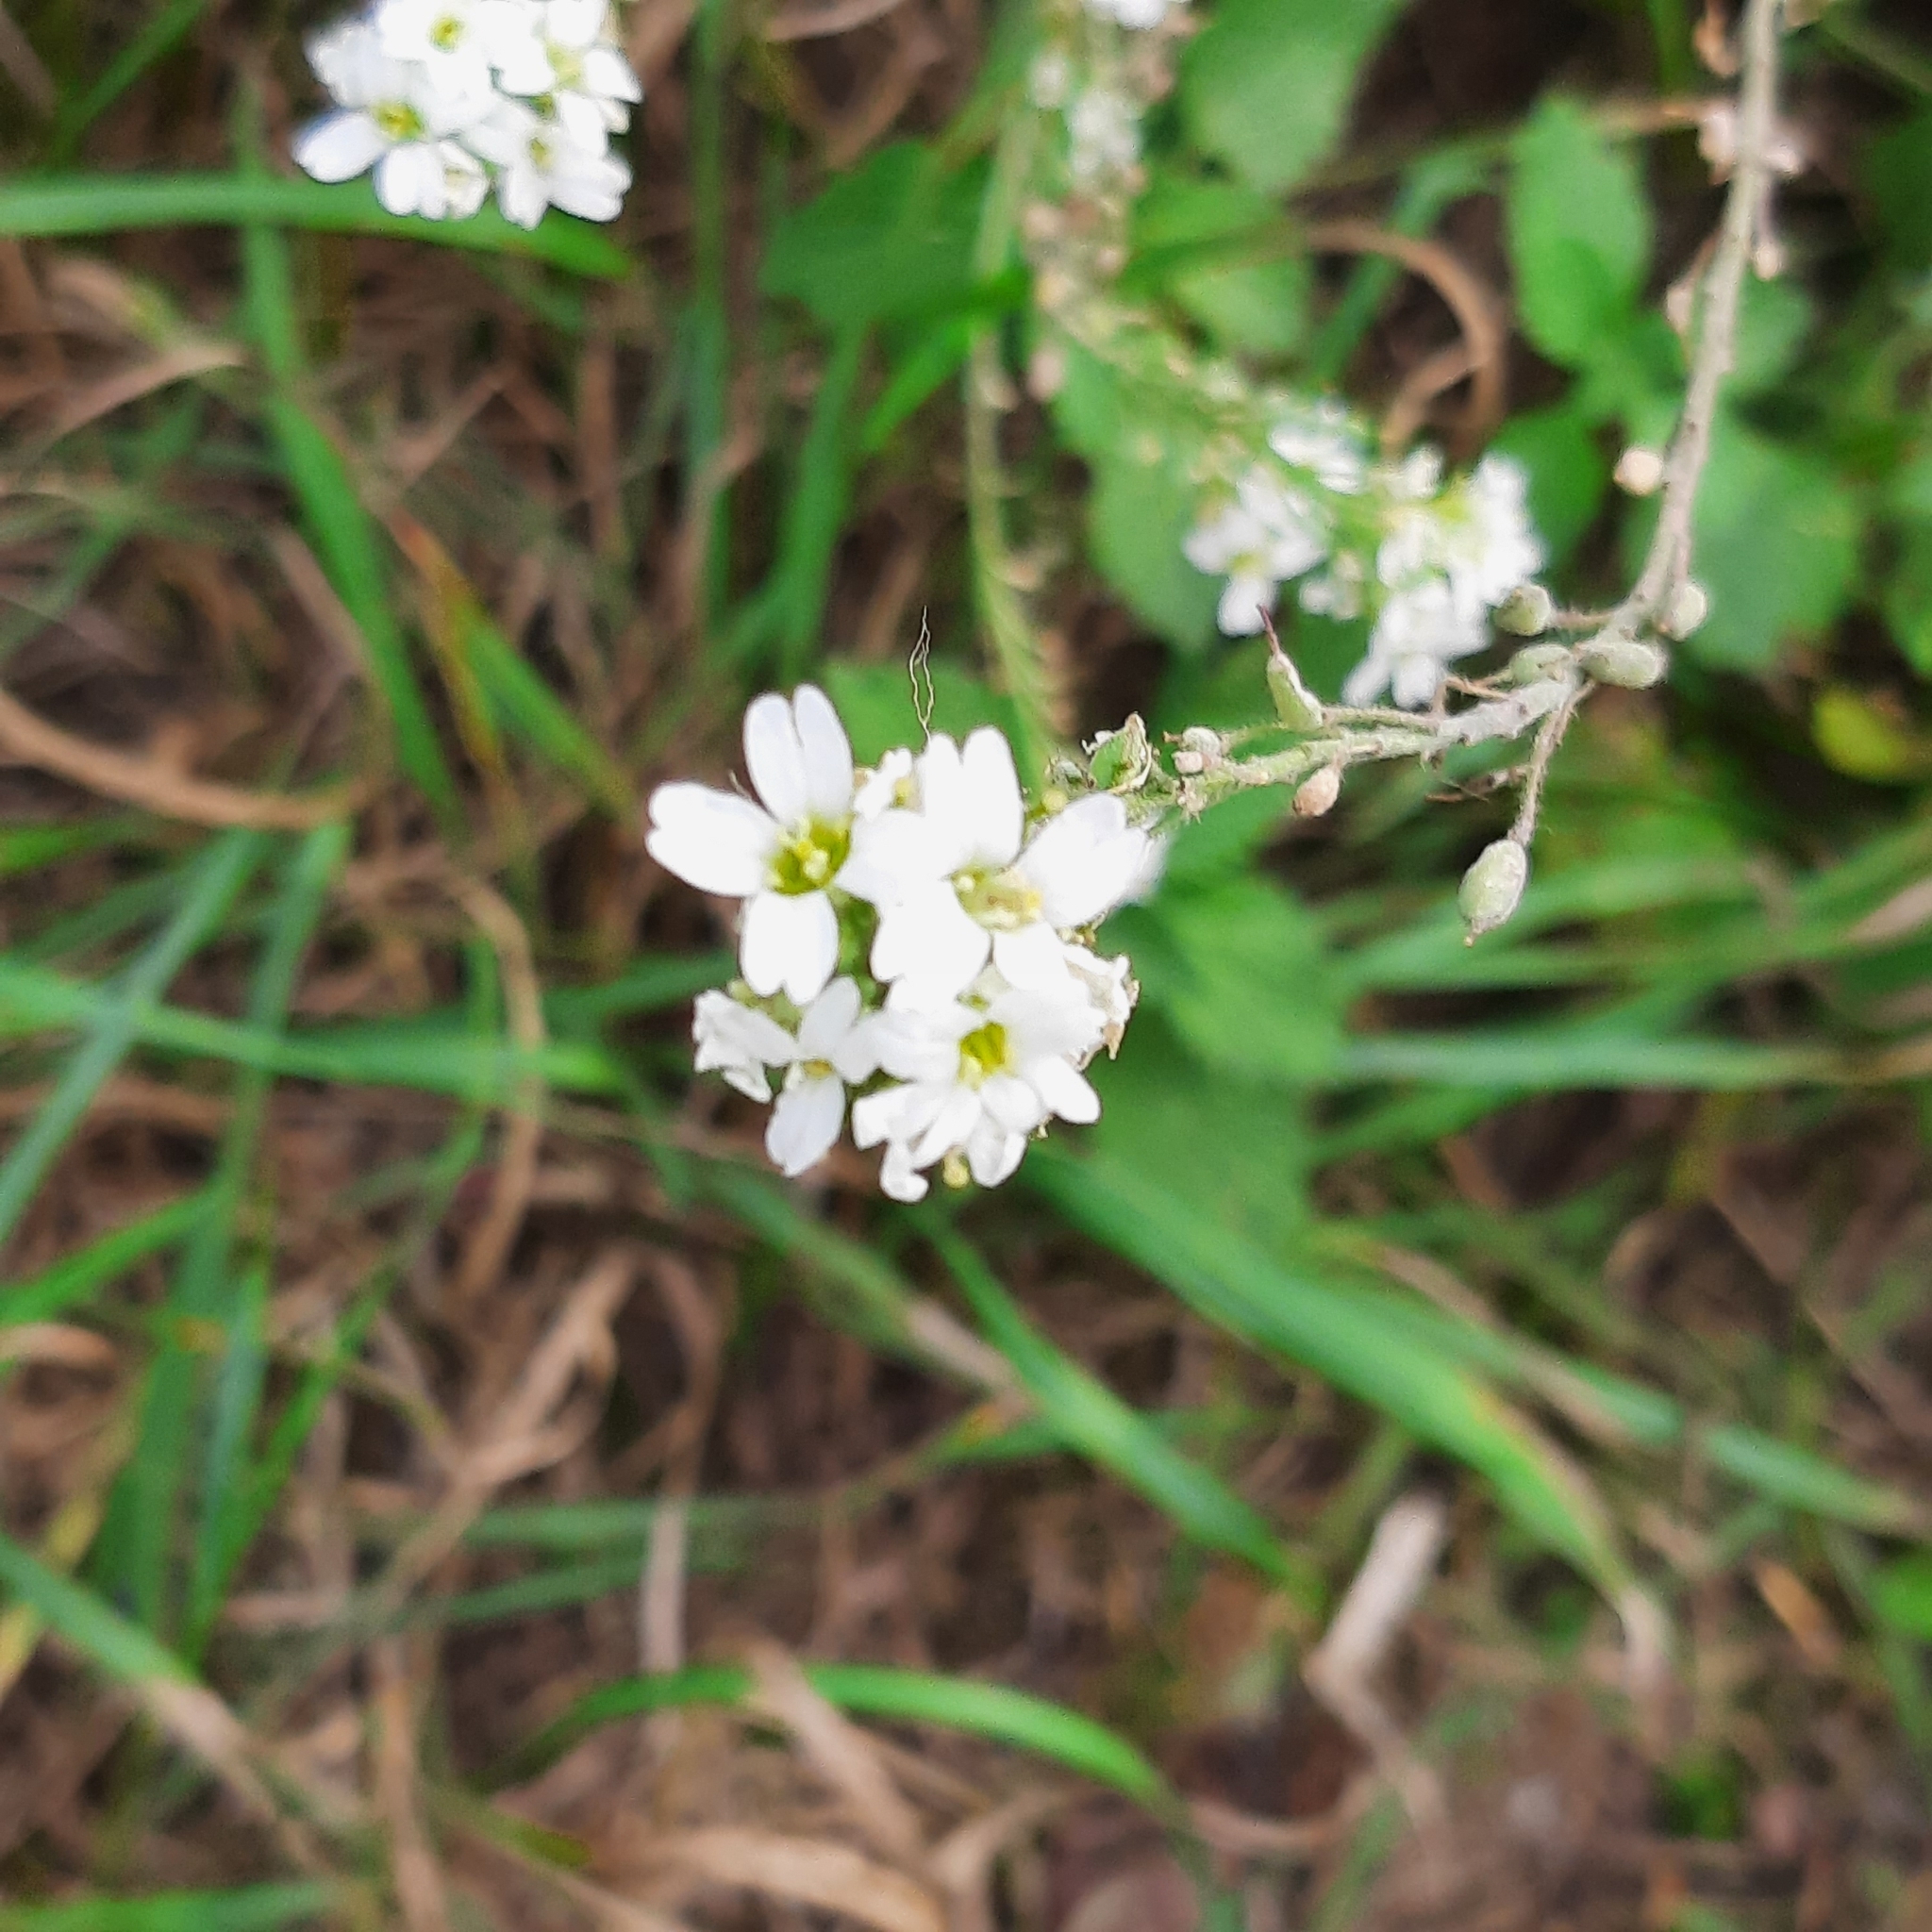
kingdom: Plantae
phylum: Tracheophyta
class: Magnoliopsida
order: Brassicales
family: Brassicaceae
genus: Berteroa
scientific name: Berteroa incana
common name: Hoary alison
